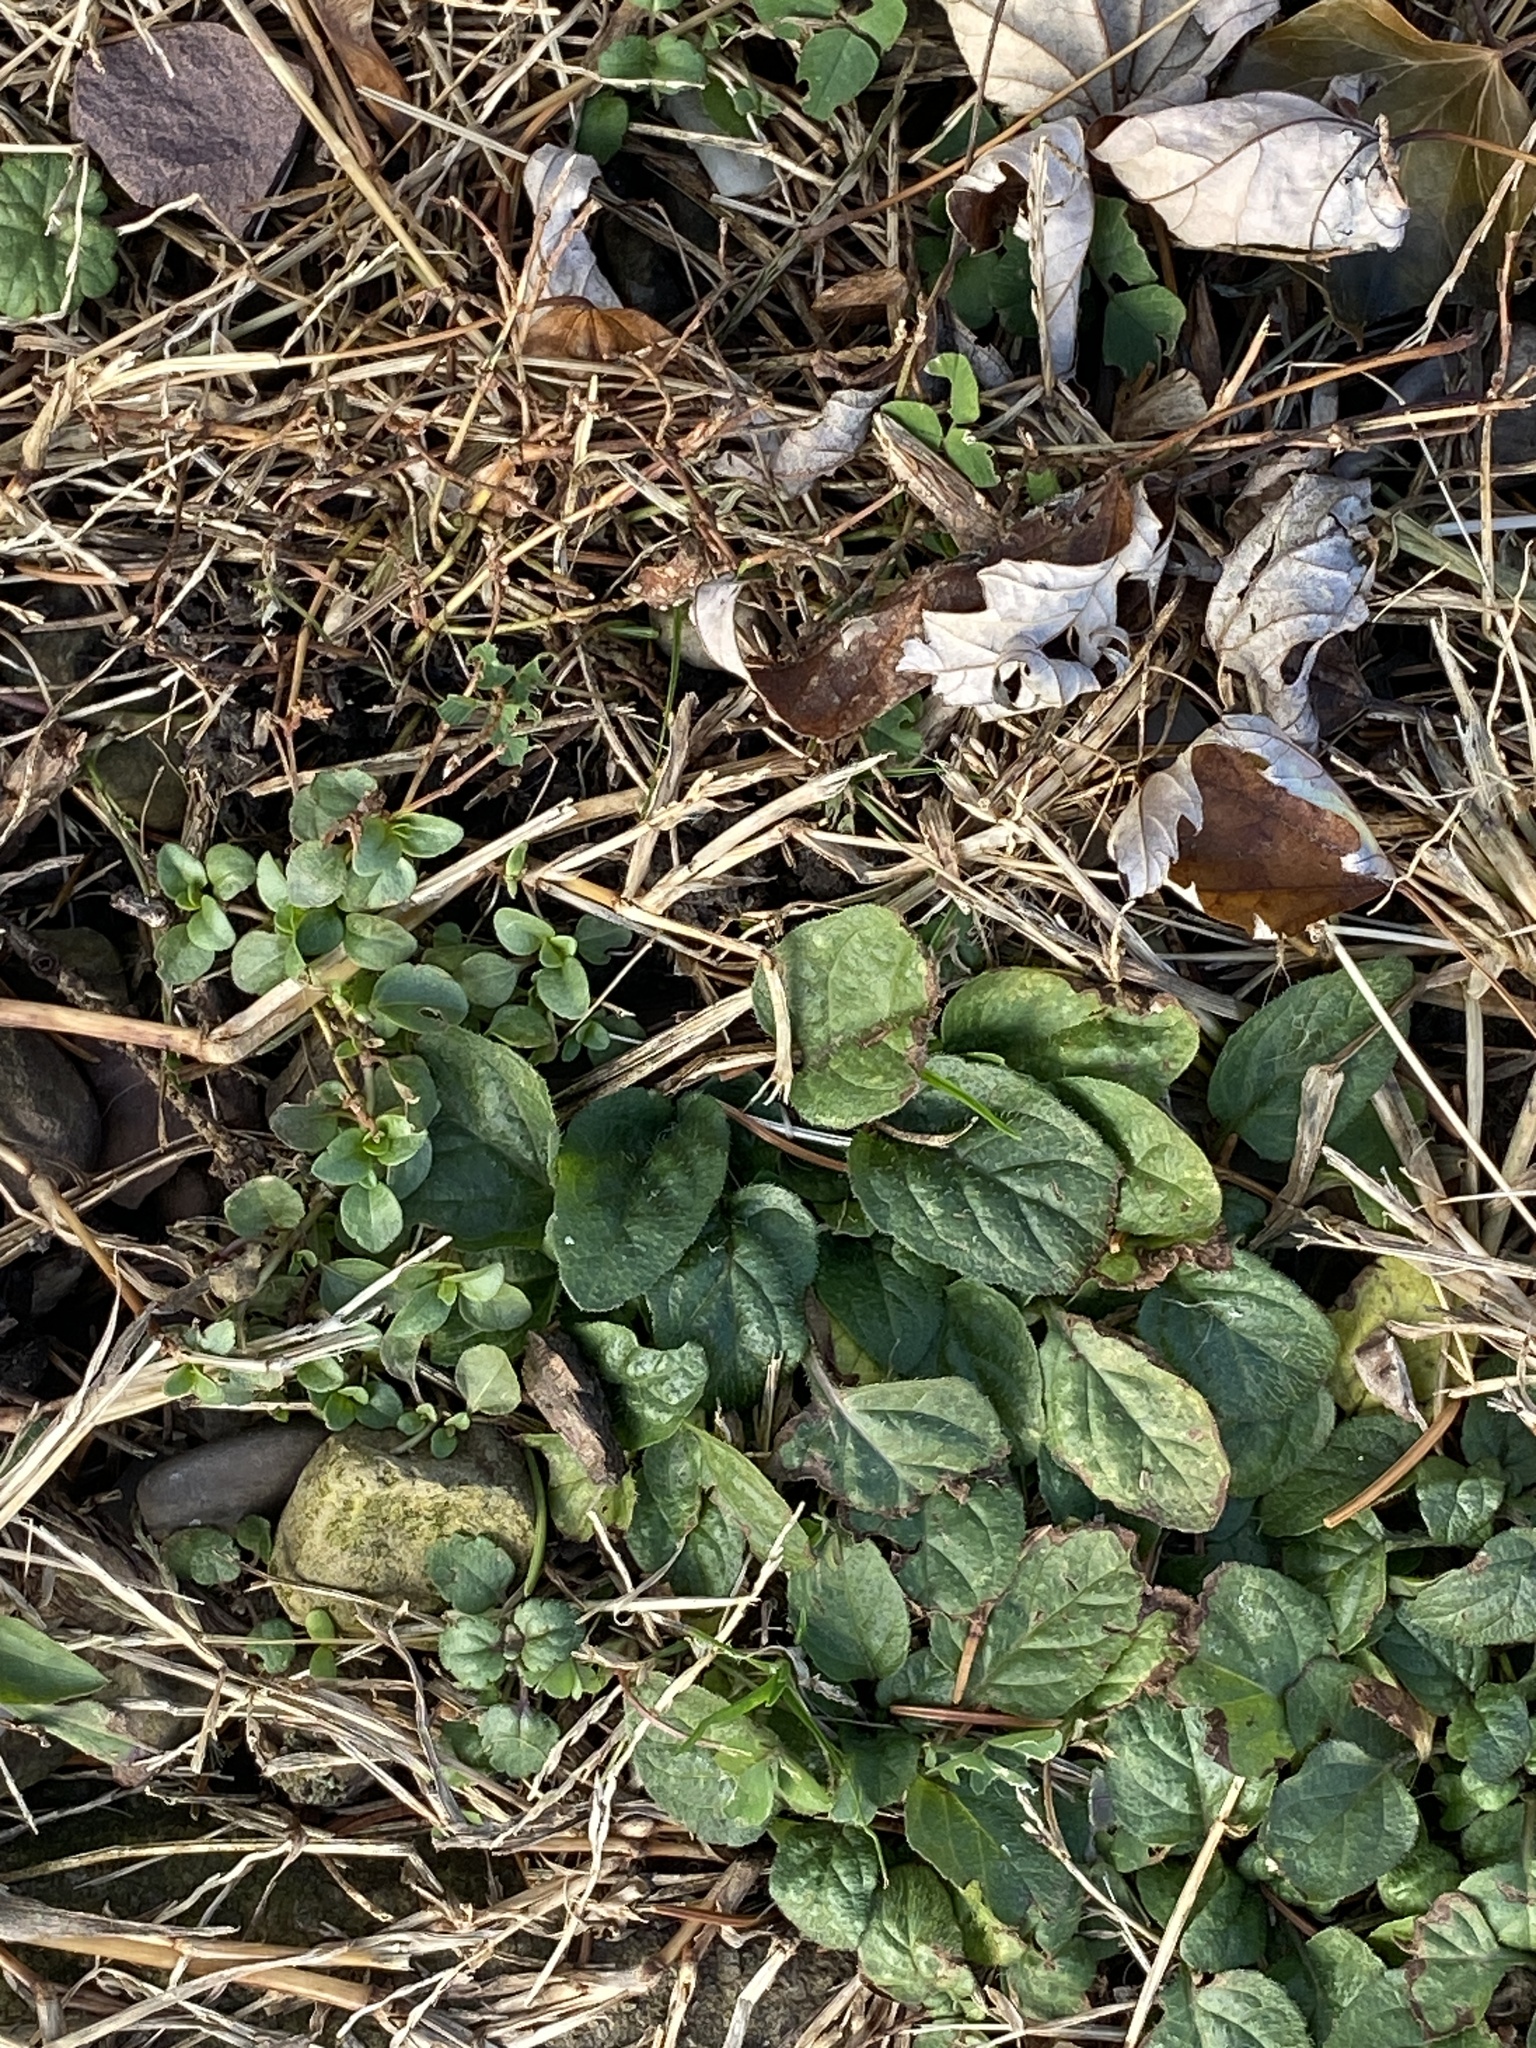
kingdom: Plantae
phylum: Tracheophyta
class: Magnoliopsida
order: Lamiales
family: Lamiaceae
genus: Prunella
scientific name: Prunella vulgaris
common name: Heal-all
